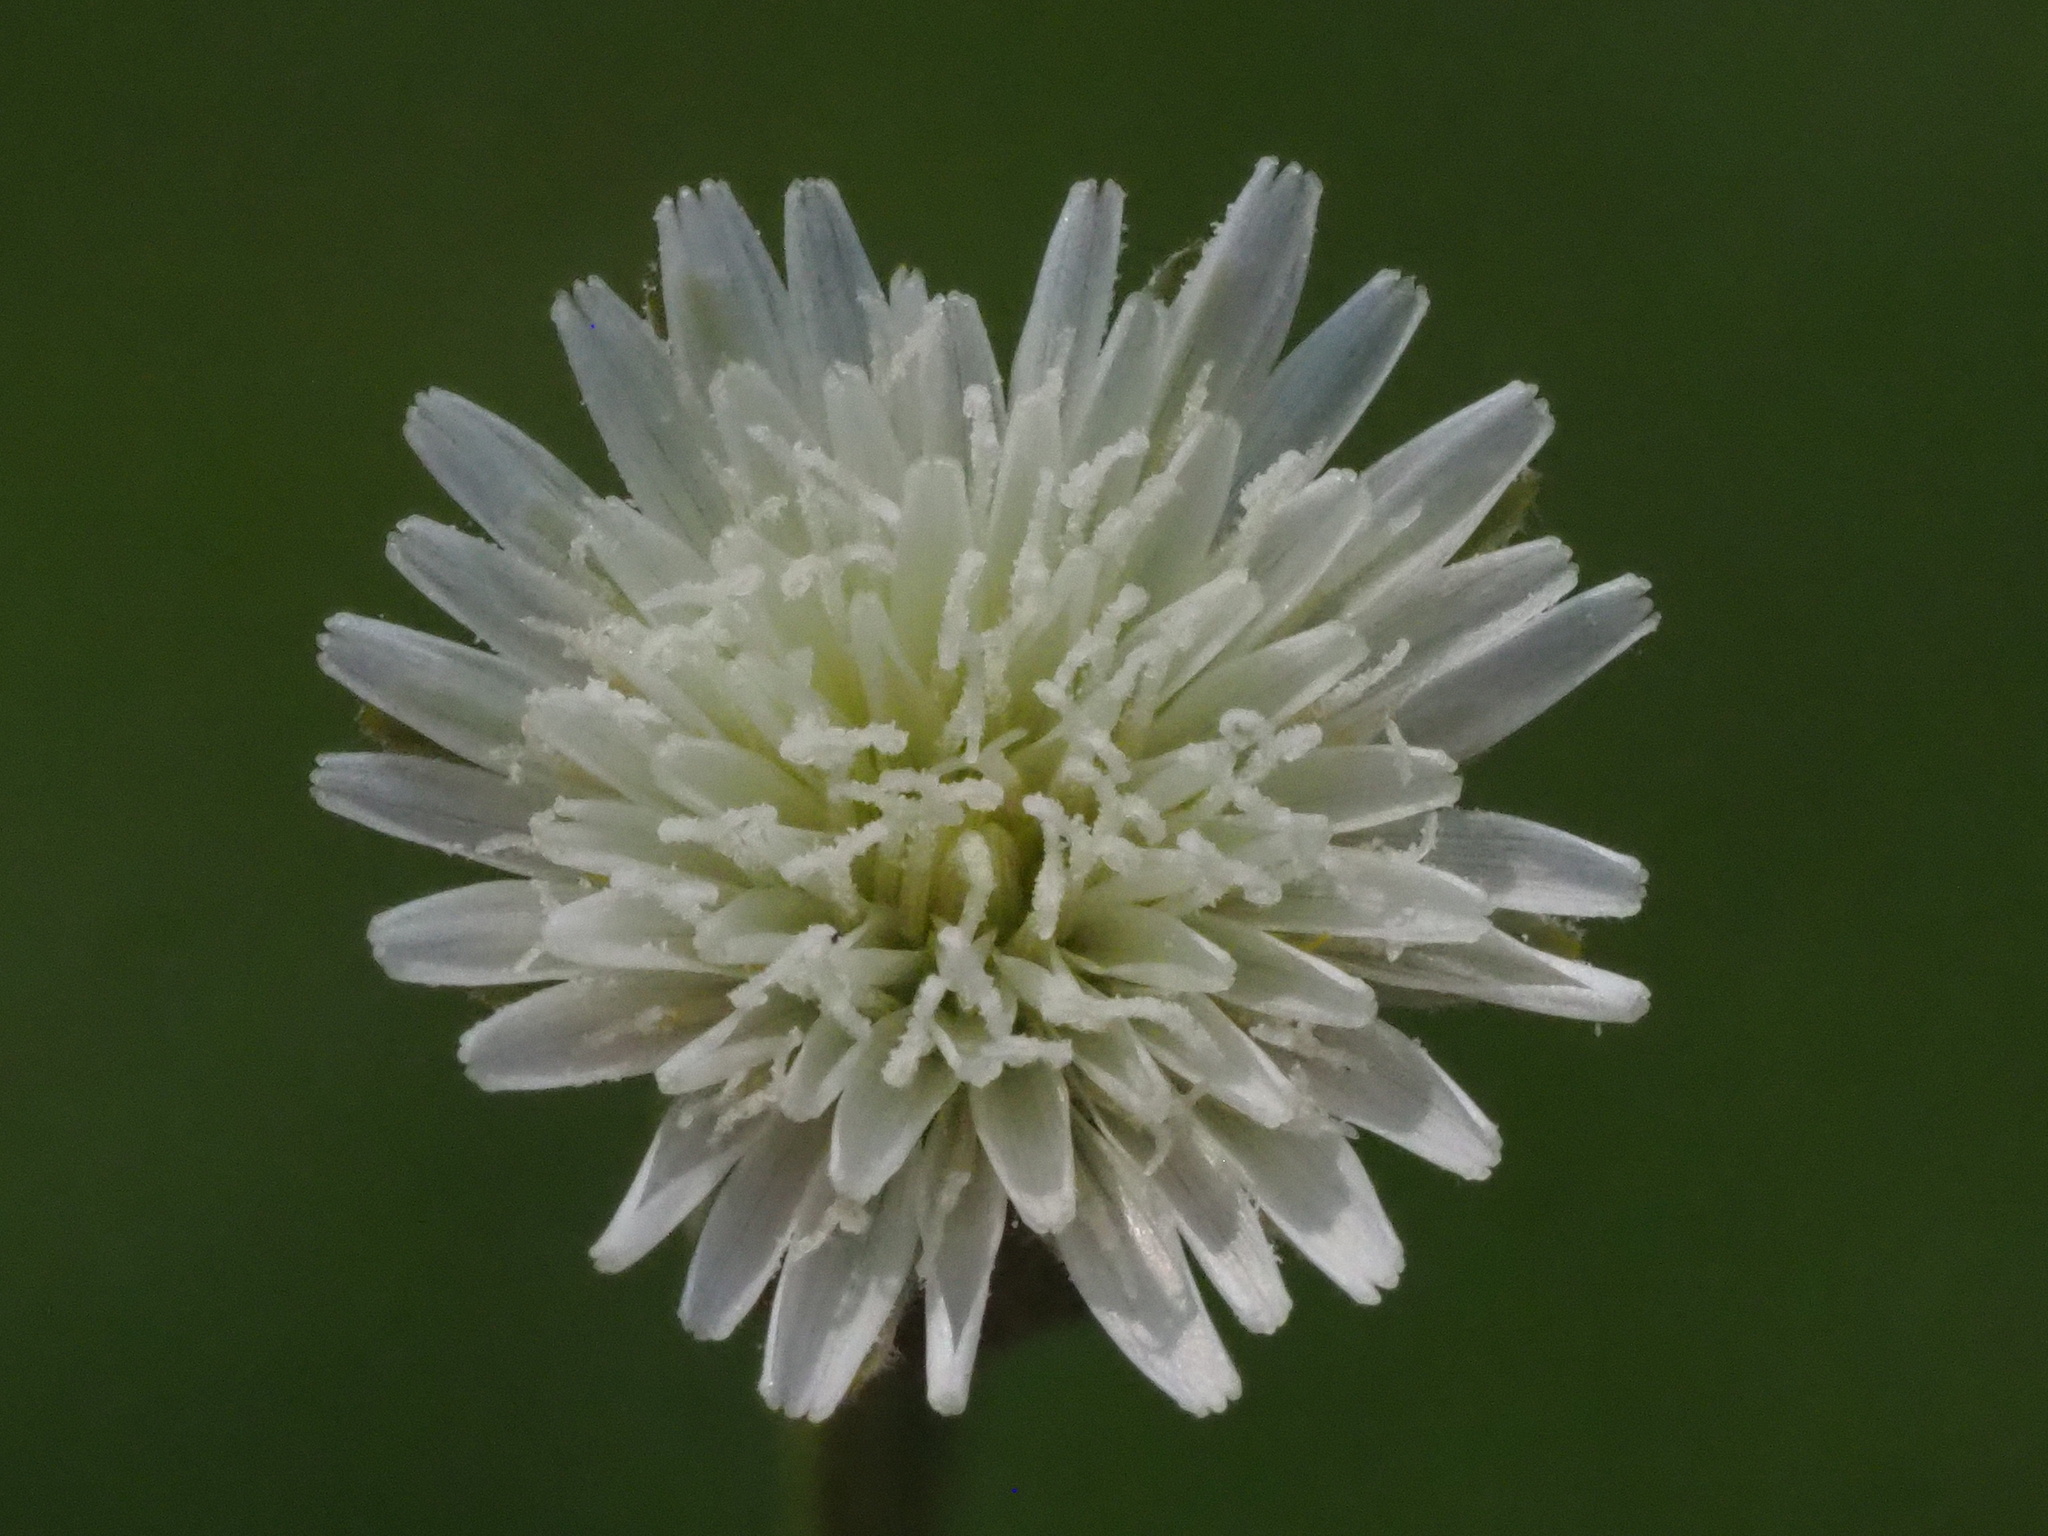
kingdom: Plantae
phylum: Tracheophyta
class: Magnoliopsida
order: Asterales
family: Asteraceae
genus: Hypochaeris
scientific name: Hypochaeris albiflora
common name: White flatweed
